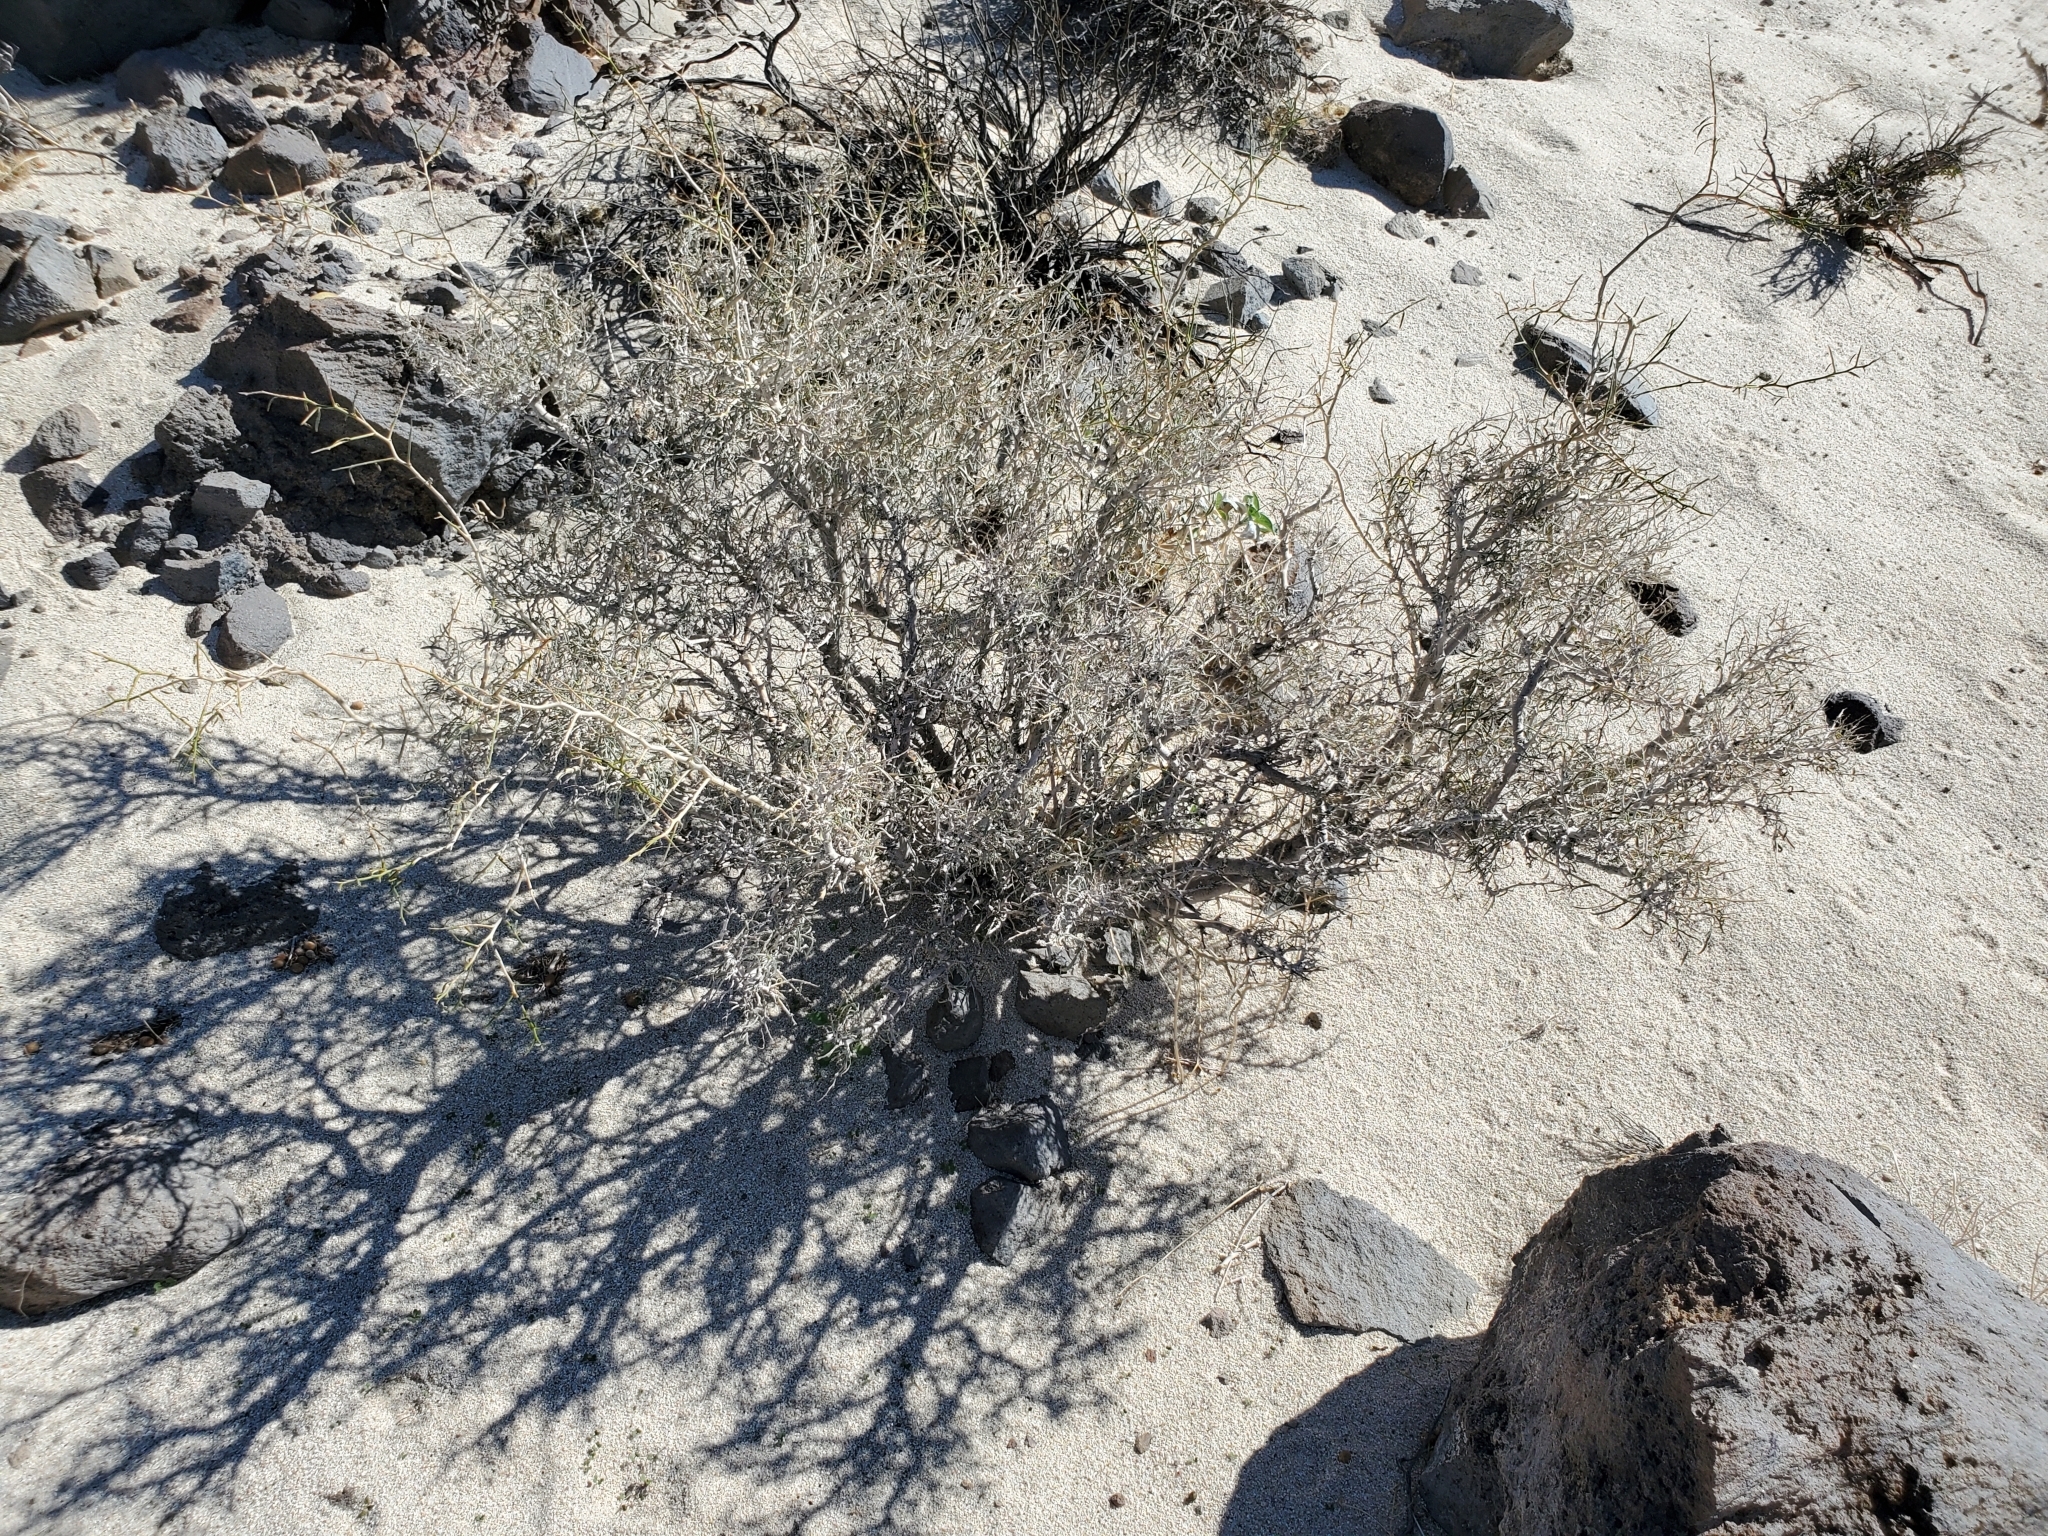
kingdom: Plantae
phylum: Tracheophyta
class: Magnoliopsida
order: Fabales
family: Fabaceae
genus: Psorothamnus
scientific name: Psorothamnus schottii
